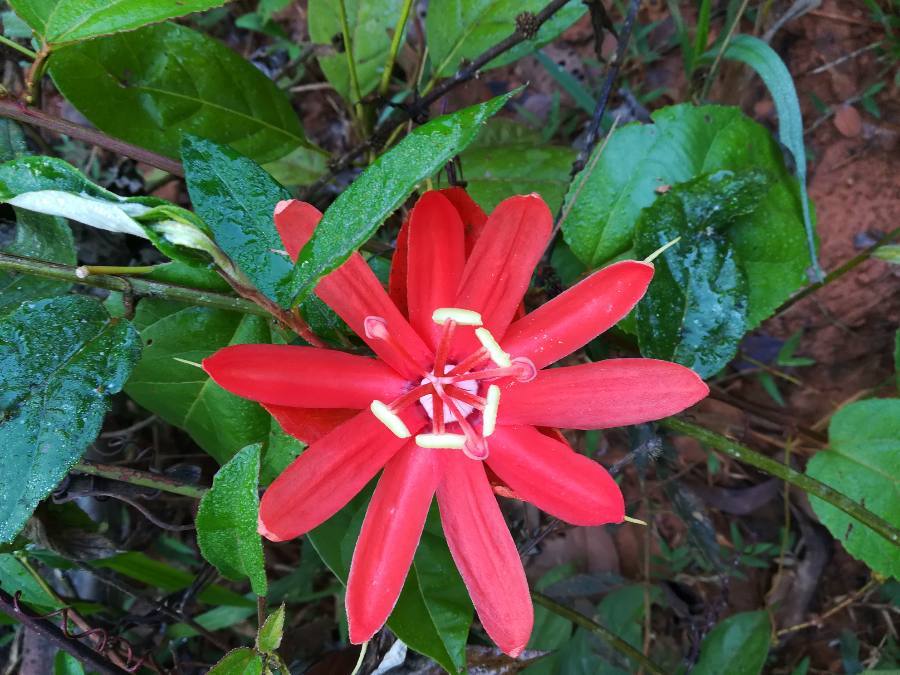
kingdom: Plantae
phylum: Tracheophyta
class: Magnoliopsida
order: Malpighiales
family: Passifloraceae
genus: Passiflora
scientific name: Passiflora coccinea
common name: Scarlet passionflower
